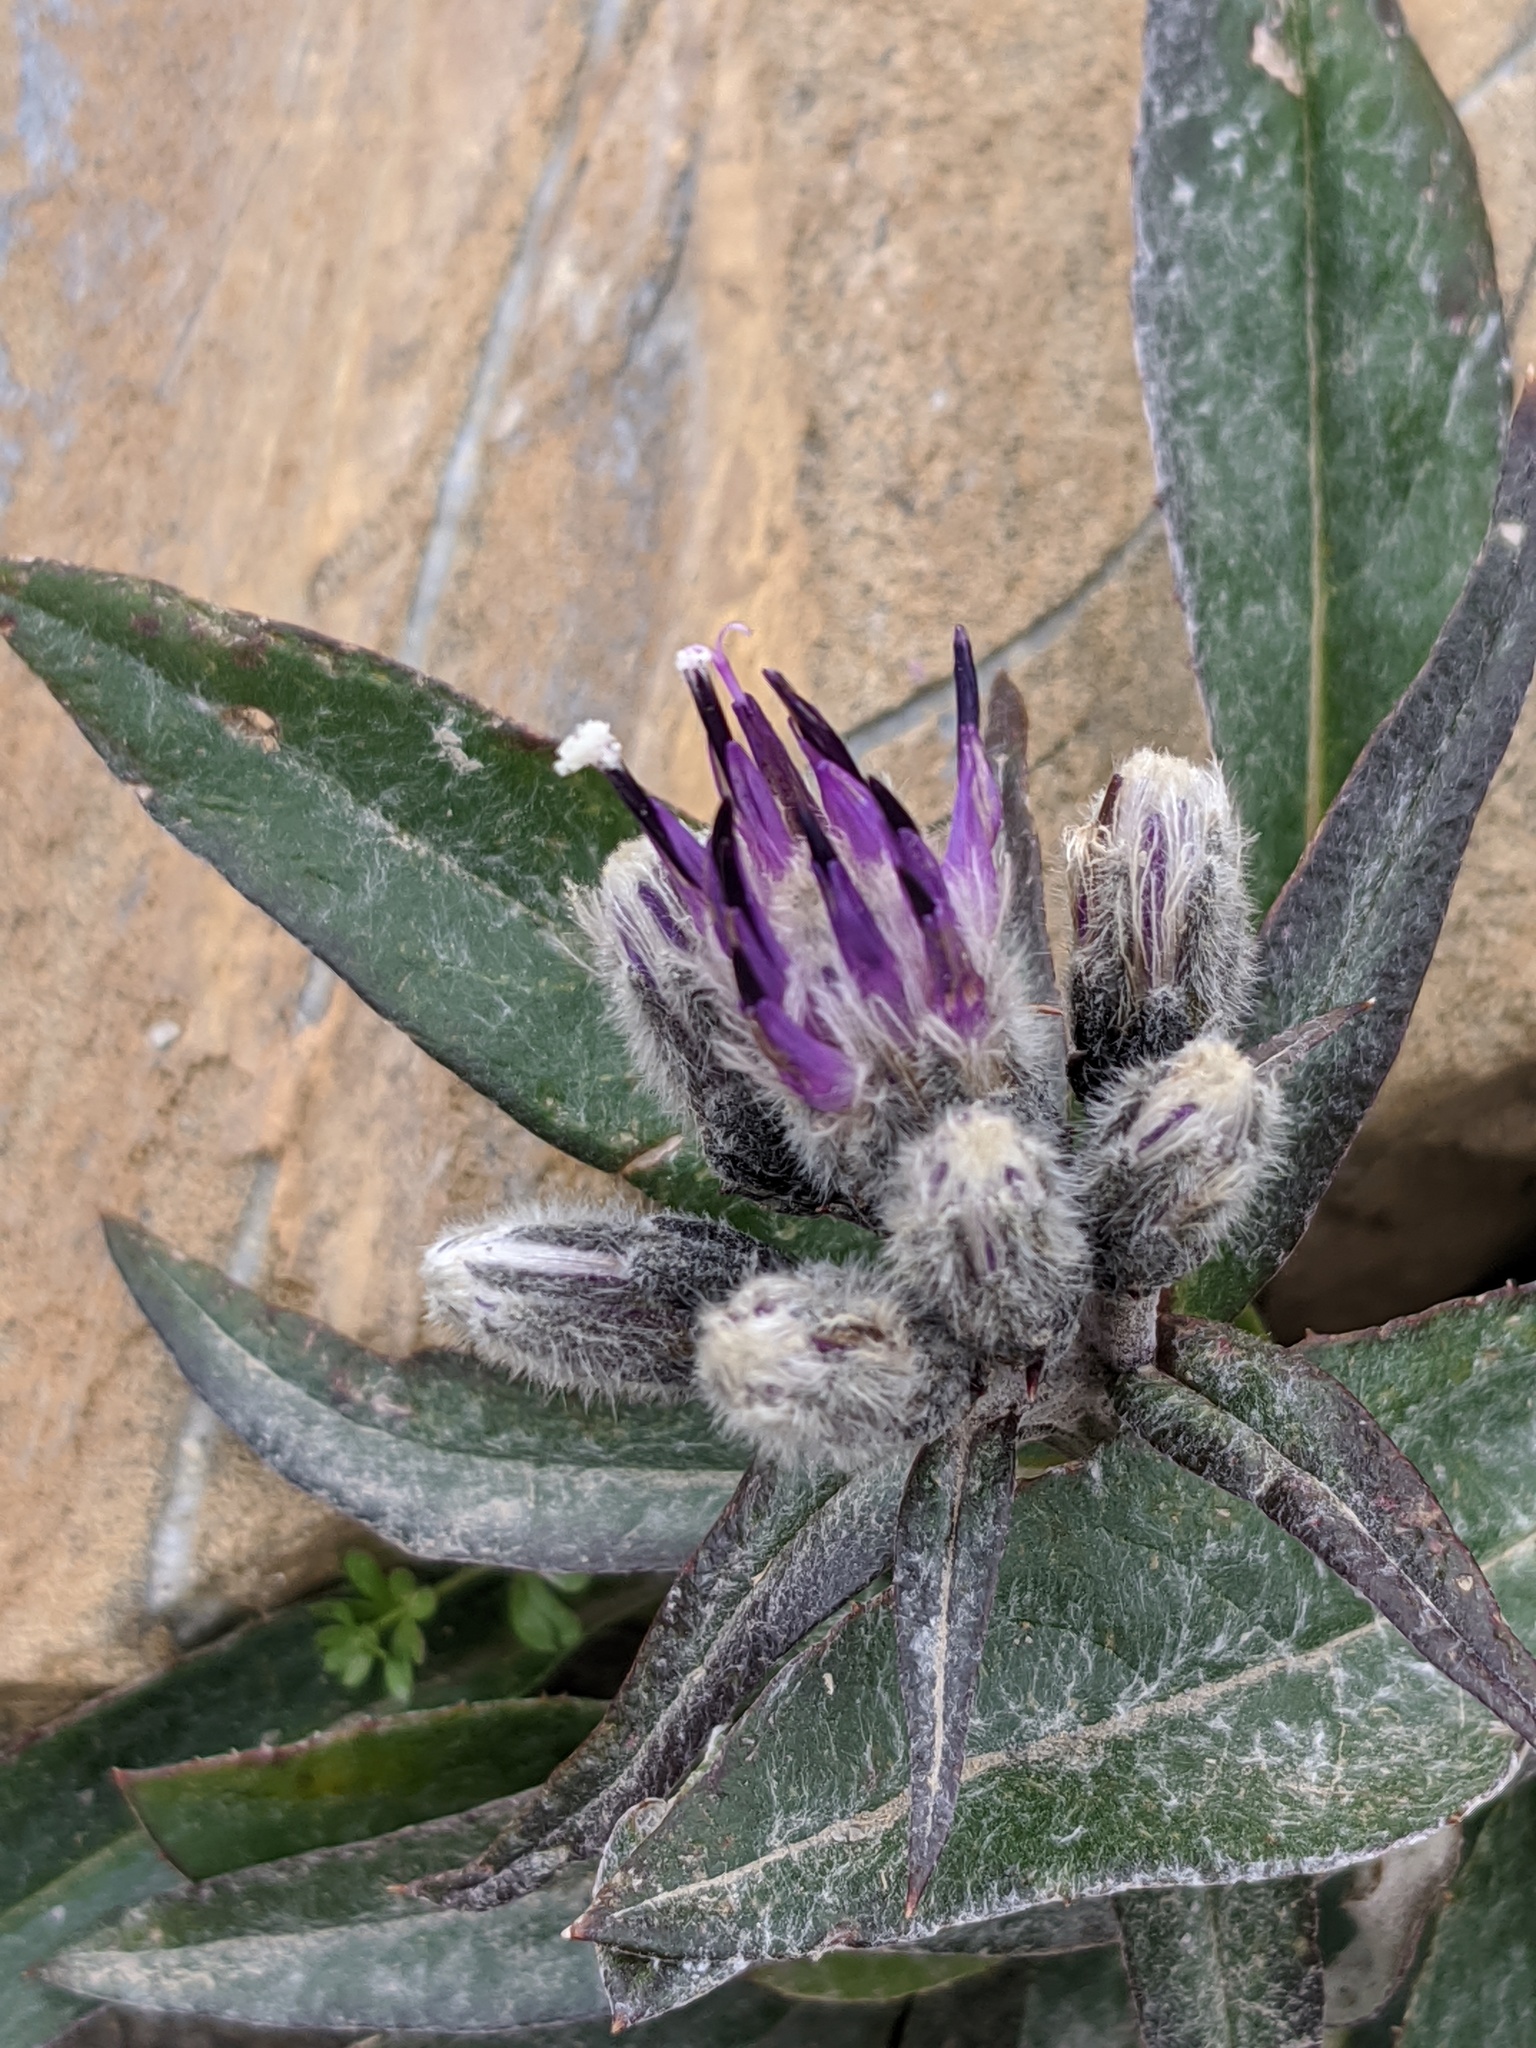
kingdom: Plantae
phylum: Tracheophyta
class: Magnoliopsida
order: Asterales
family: Asteraceae
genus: Saussurea
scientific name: Saussurea depressa
